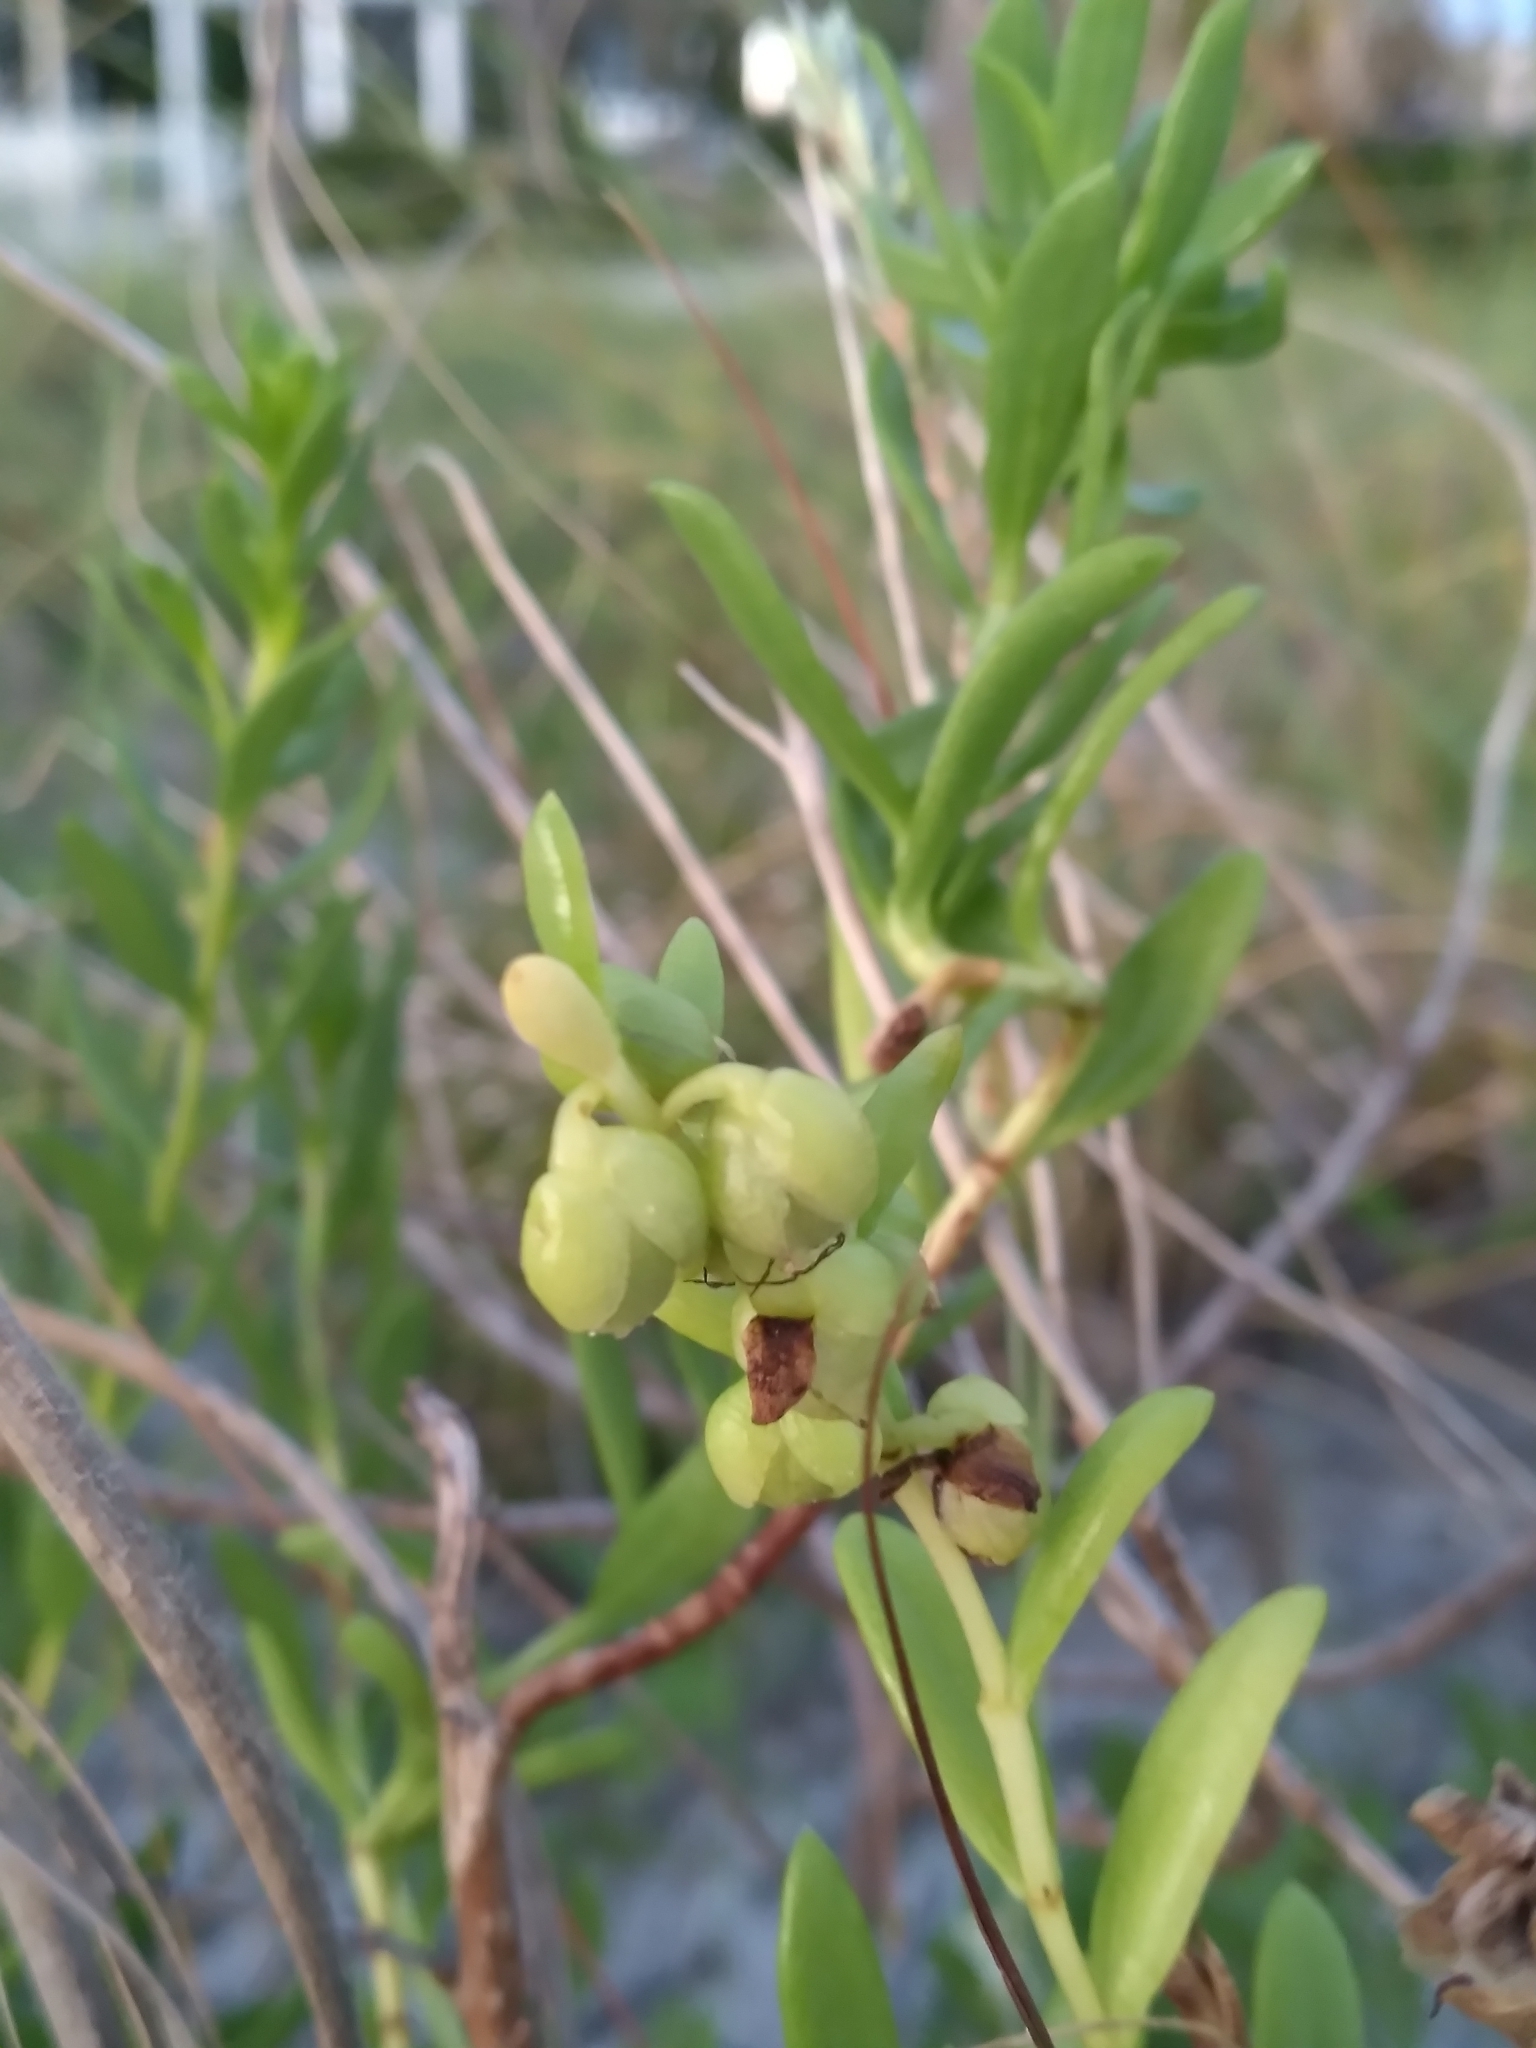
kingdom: Plantae
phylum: Tracheophyta
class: Magnoliopsida
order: Asterales
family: Asteraceae
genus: Iva
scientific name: Iva imbricata
